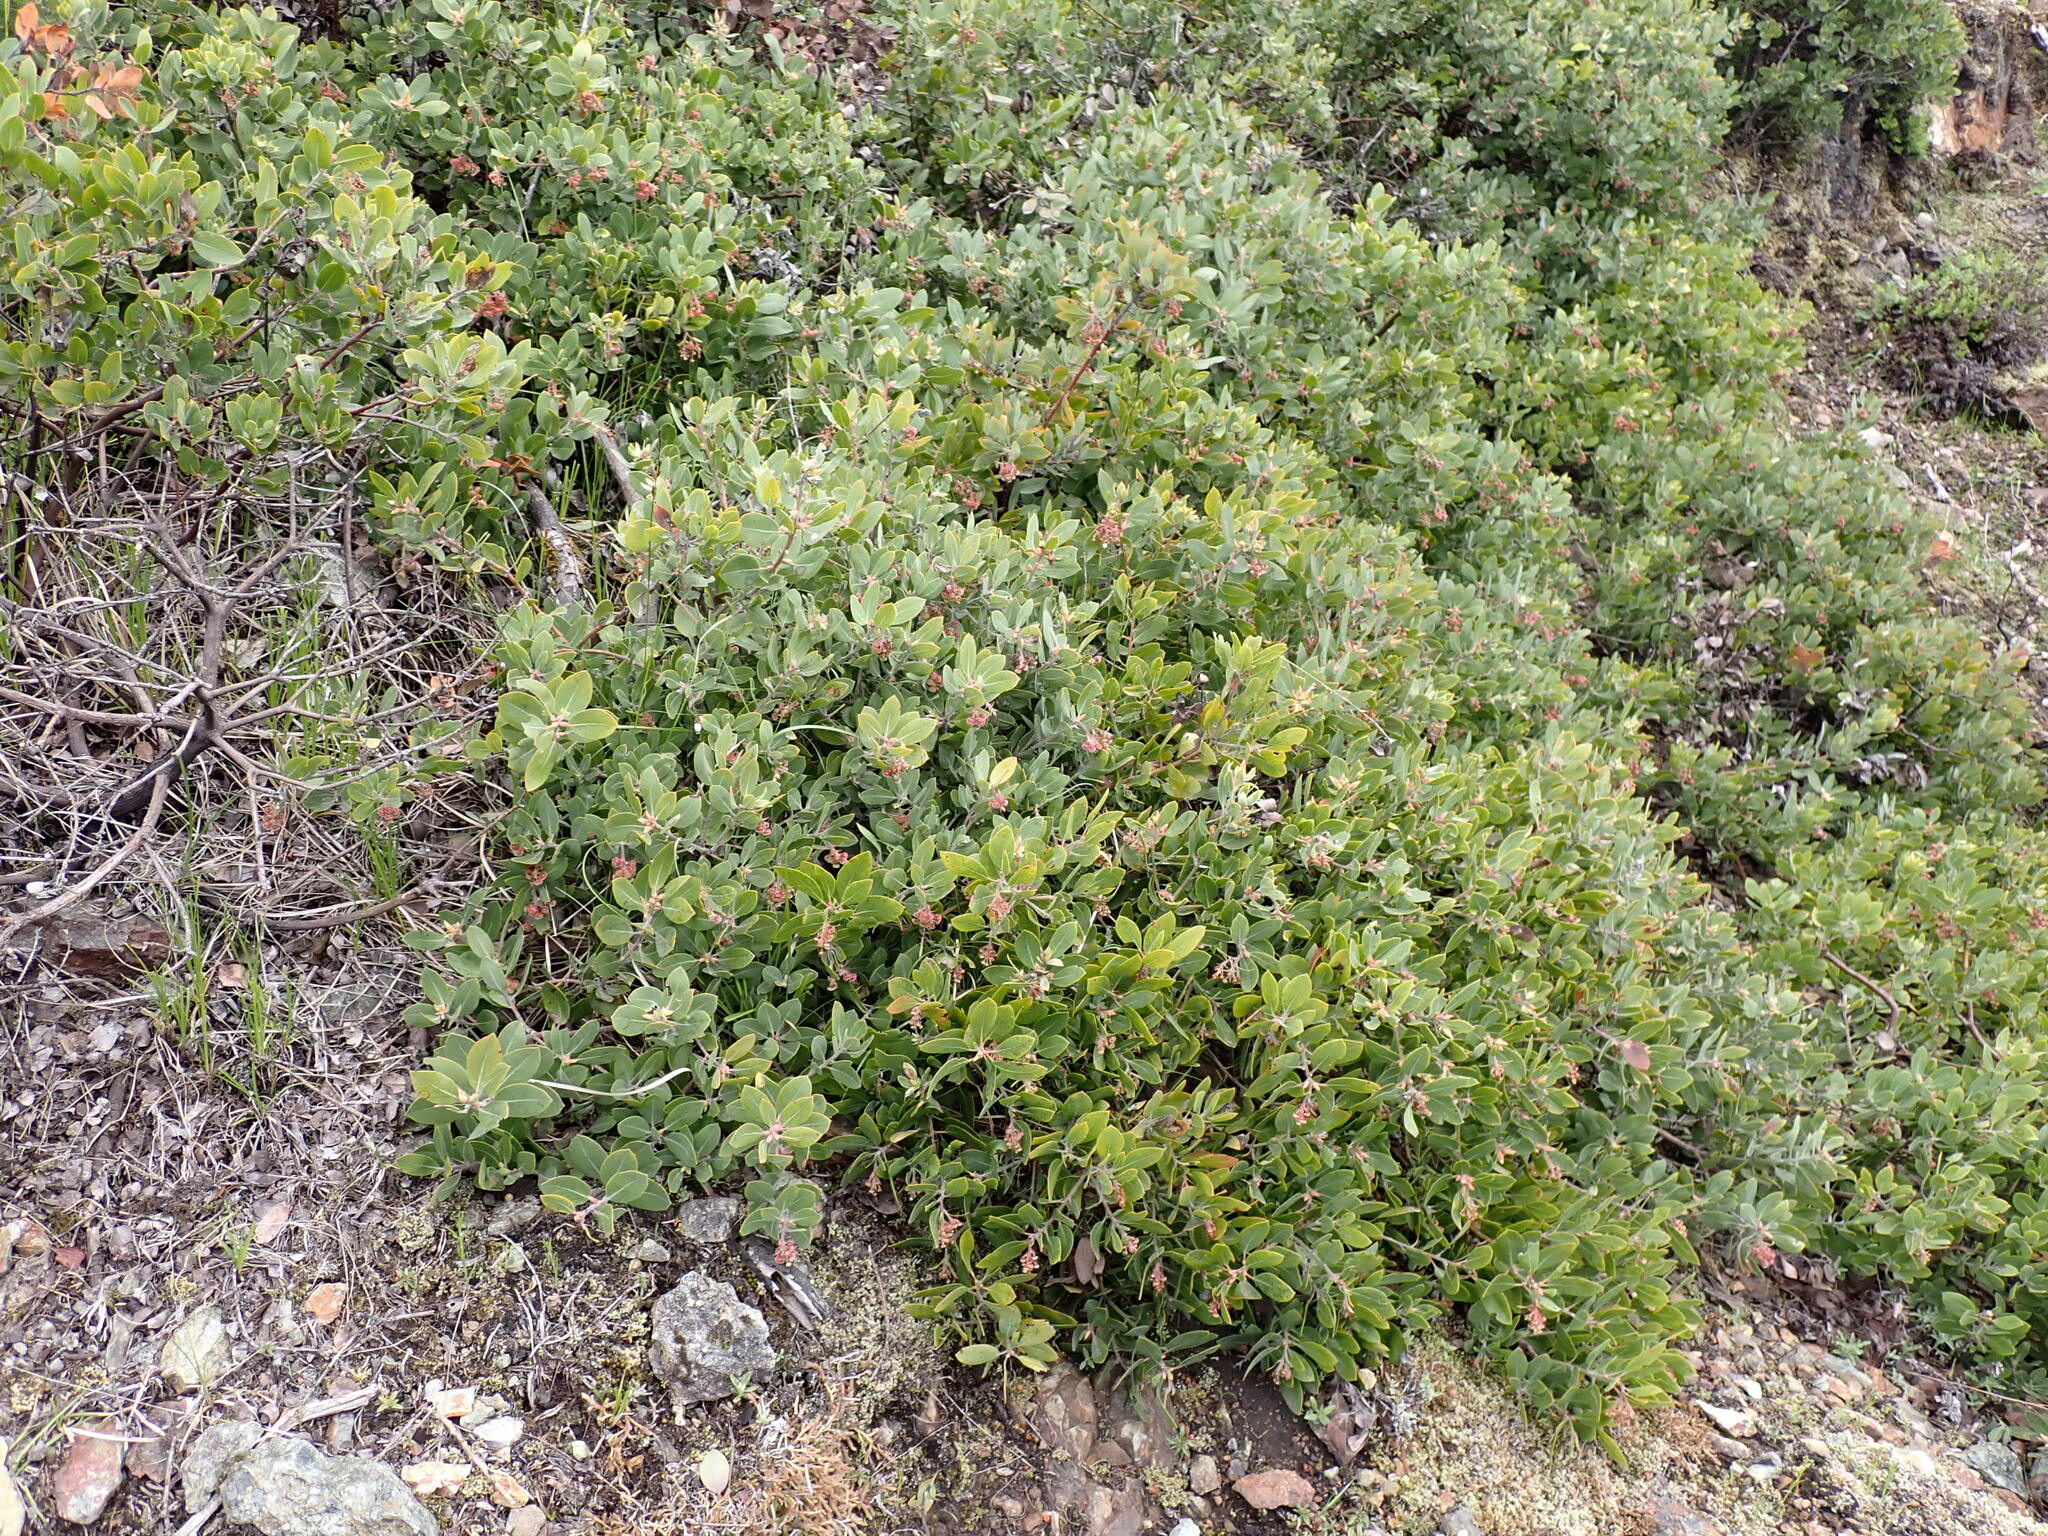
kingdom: Plantae
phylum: Tracheophyta
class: Magnoliopsida
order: Ericales
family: Ericaceae
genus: Arctostaphylos
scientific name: Arctostaphylos columbiana
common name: Bristly bearberry
